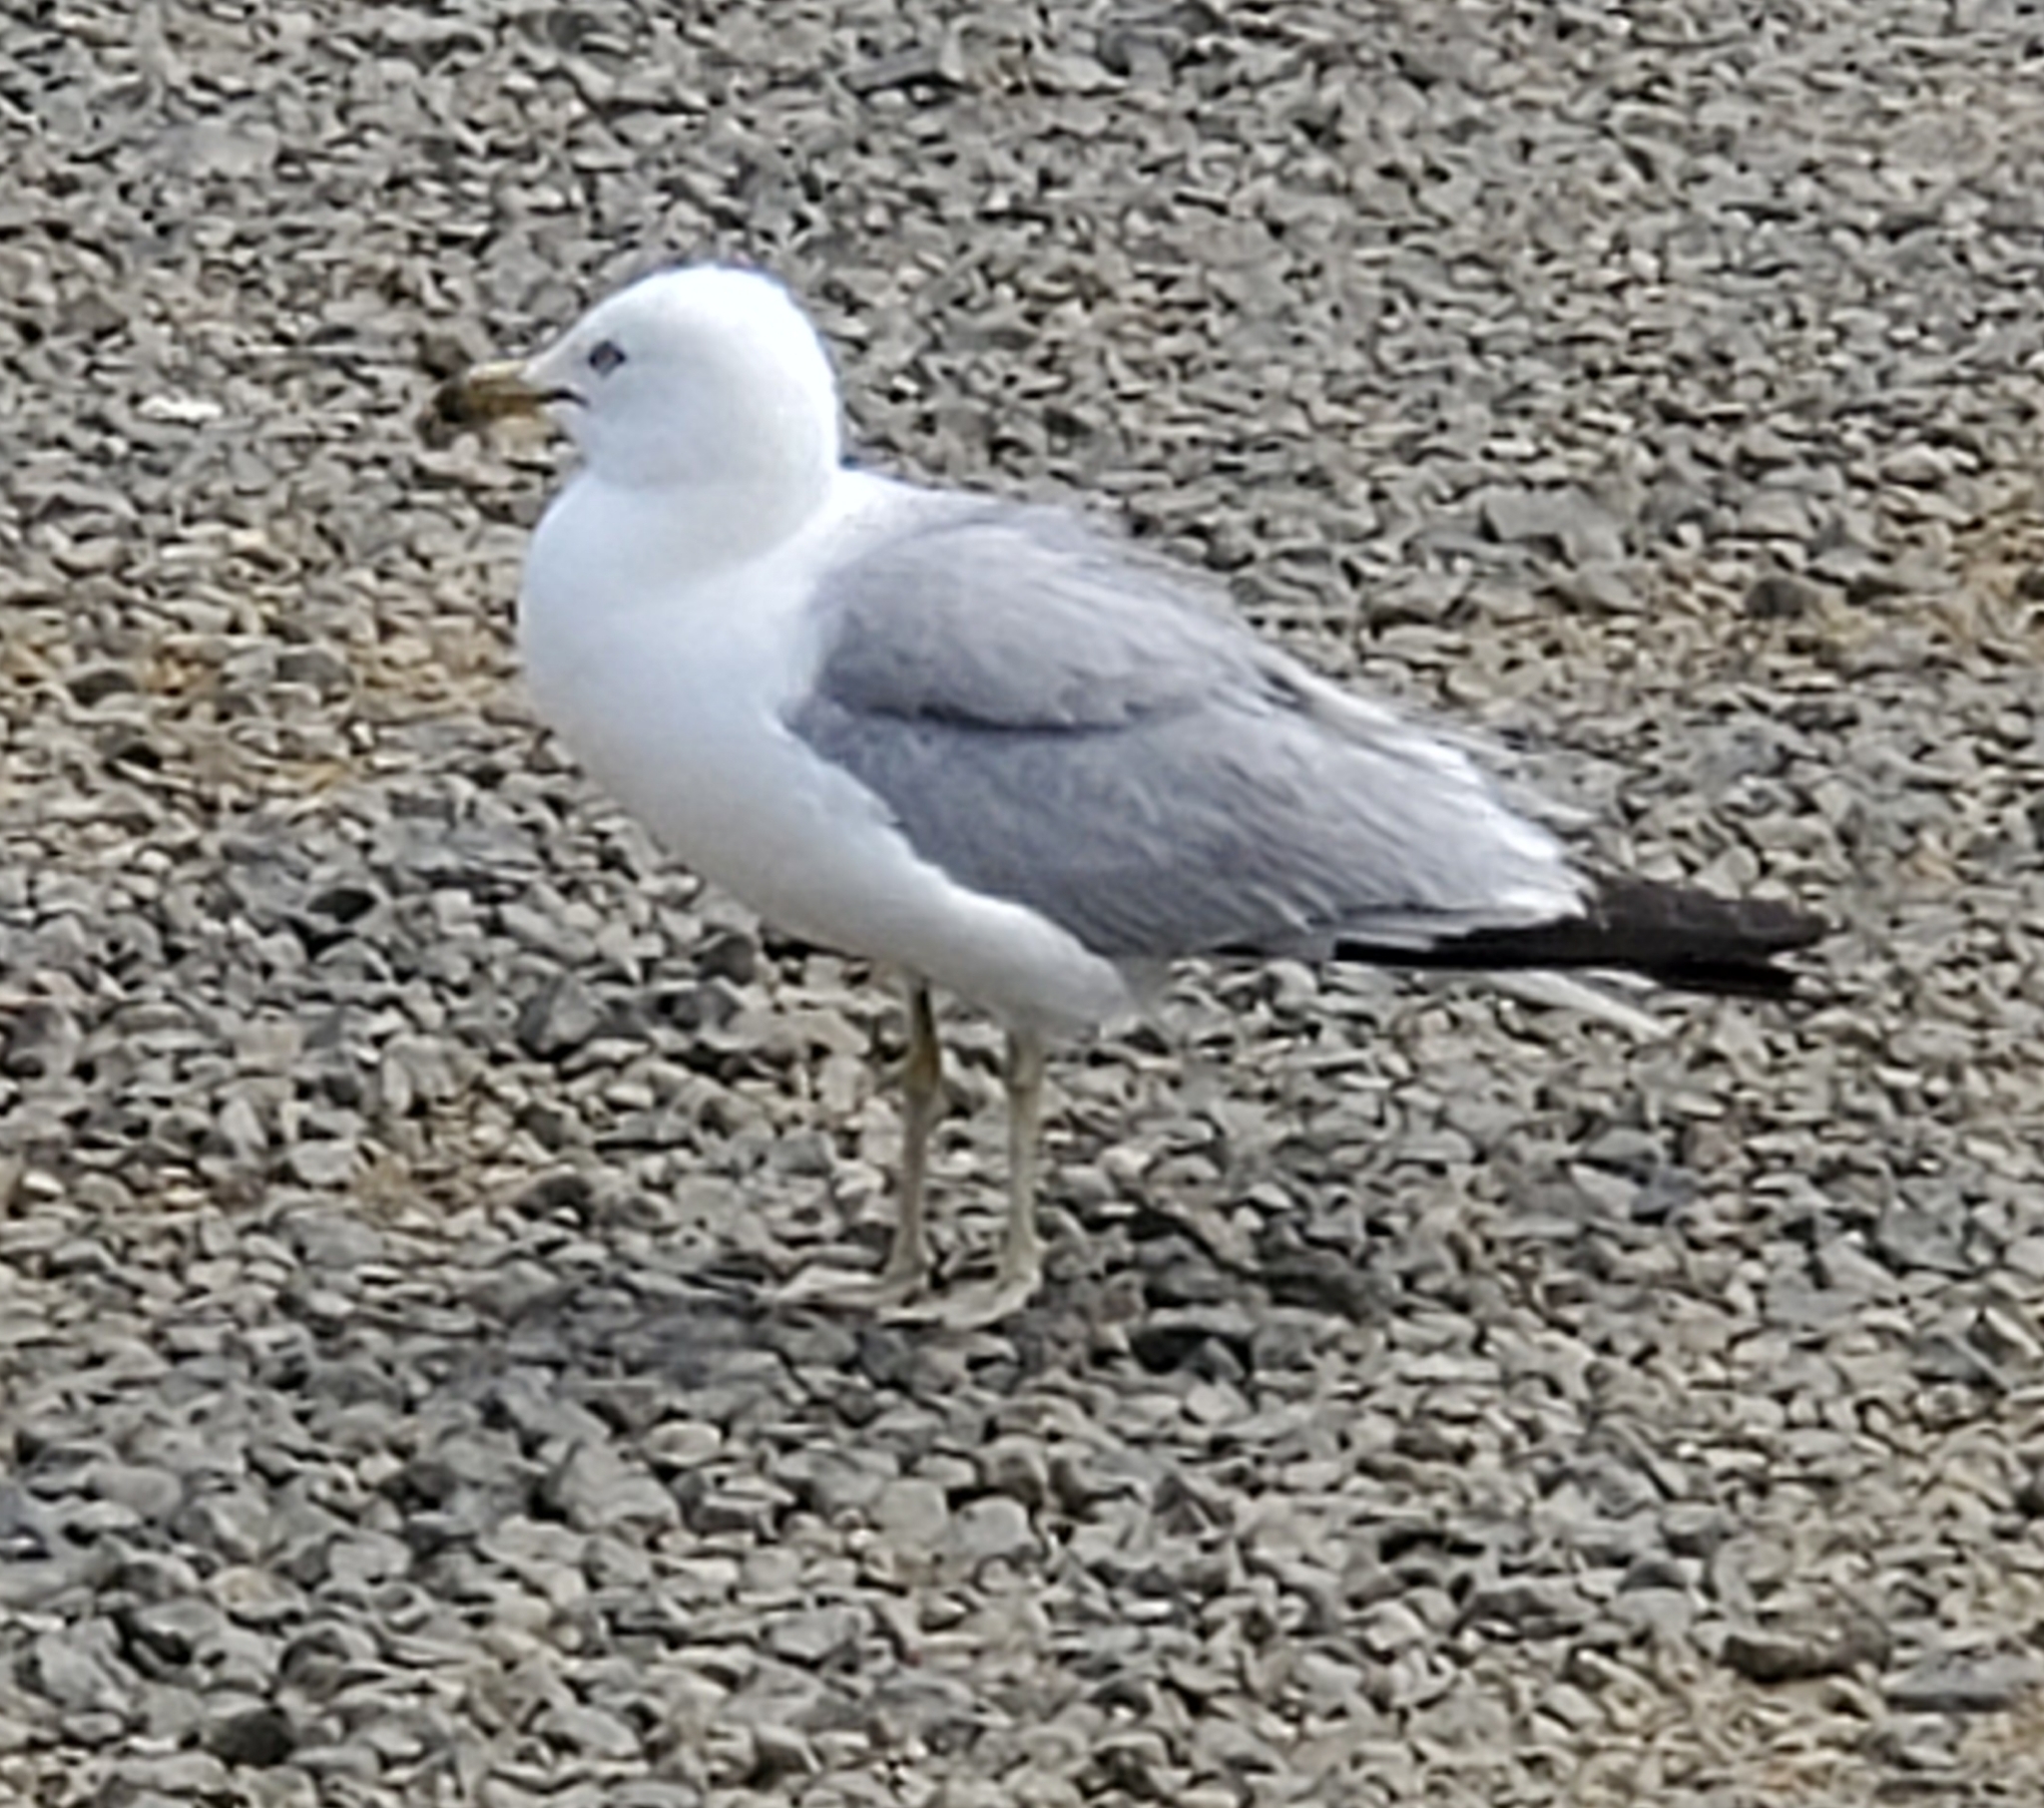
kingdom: Animalia
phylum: Chordata
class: Aves
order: Charadriiformes
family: Laridae
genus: Larus
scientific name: Larus delawarensis
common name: Ring-billed gull
